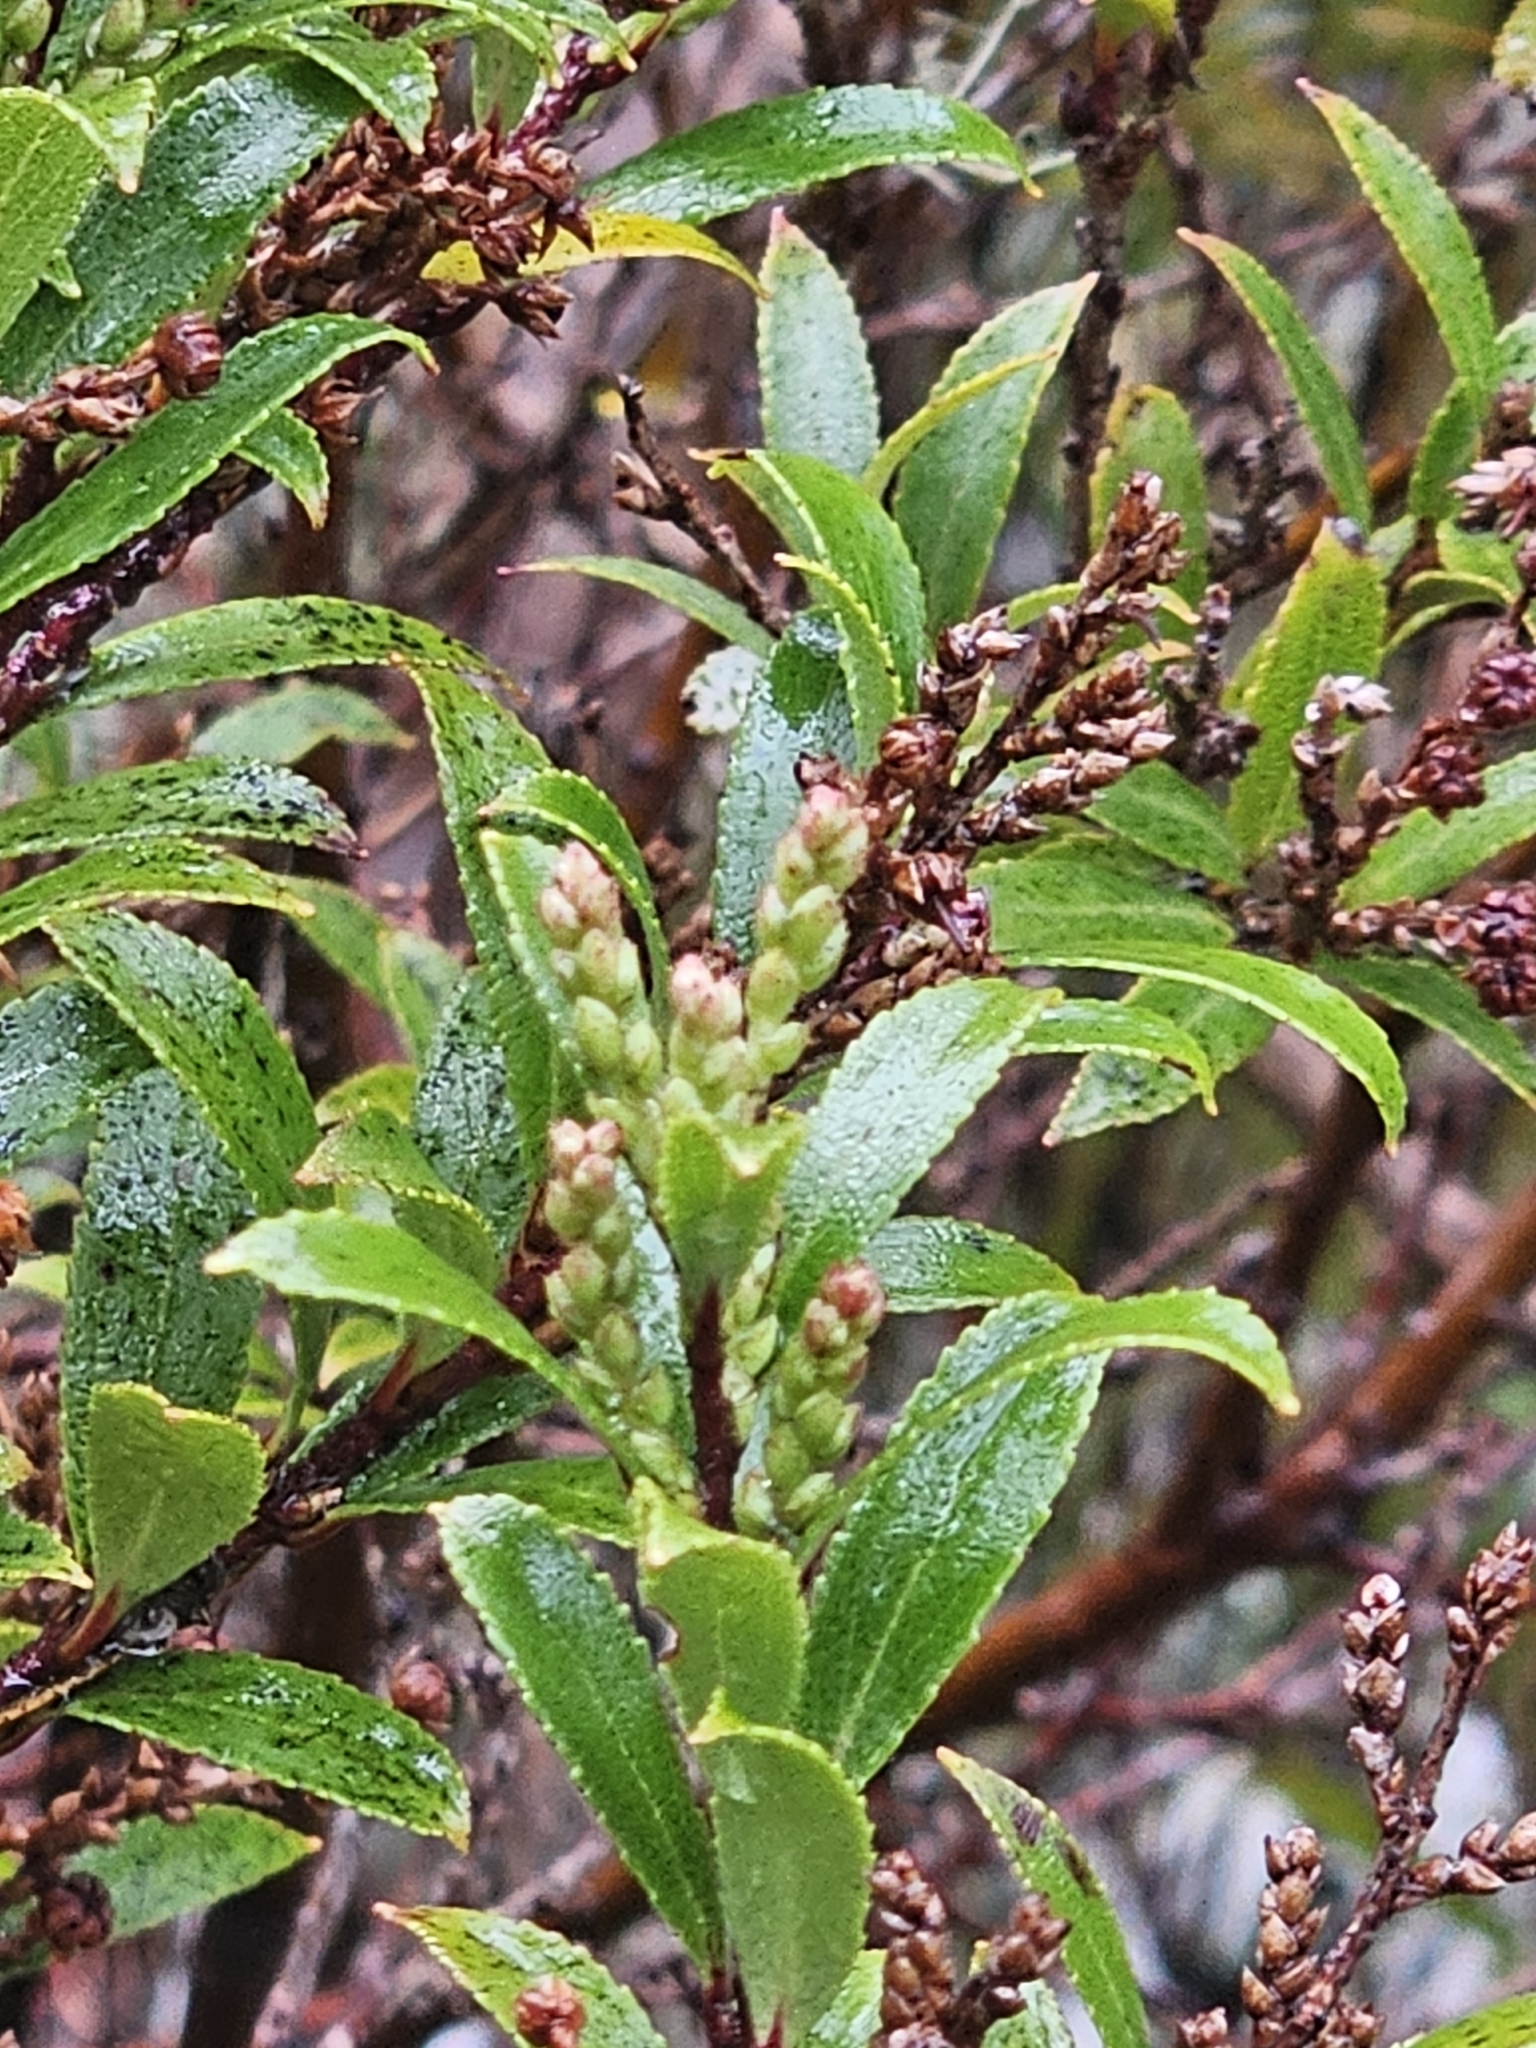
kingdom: Plantae
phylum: Tracheophyta
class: Magnoliopsida
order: Ericales
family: Ericaceae
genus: Gaultheria
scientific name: Gaultheria rupestris
